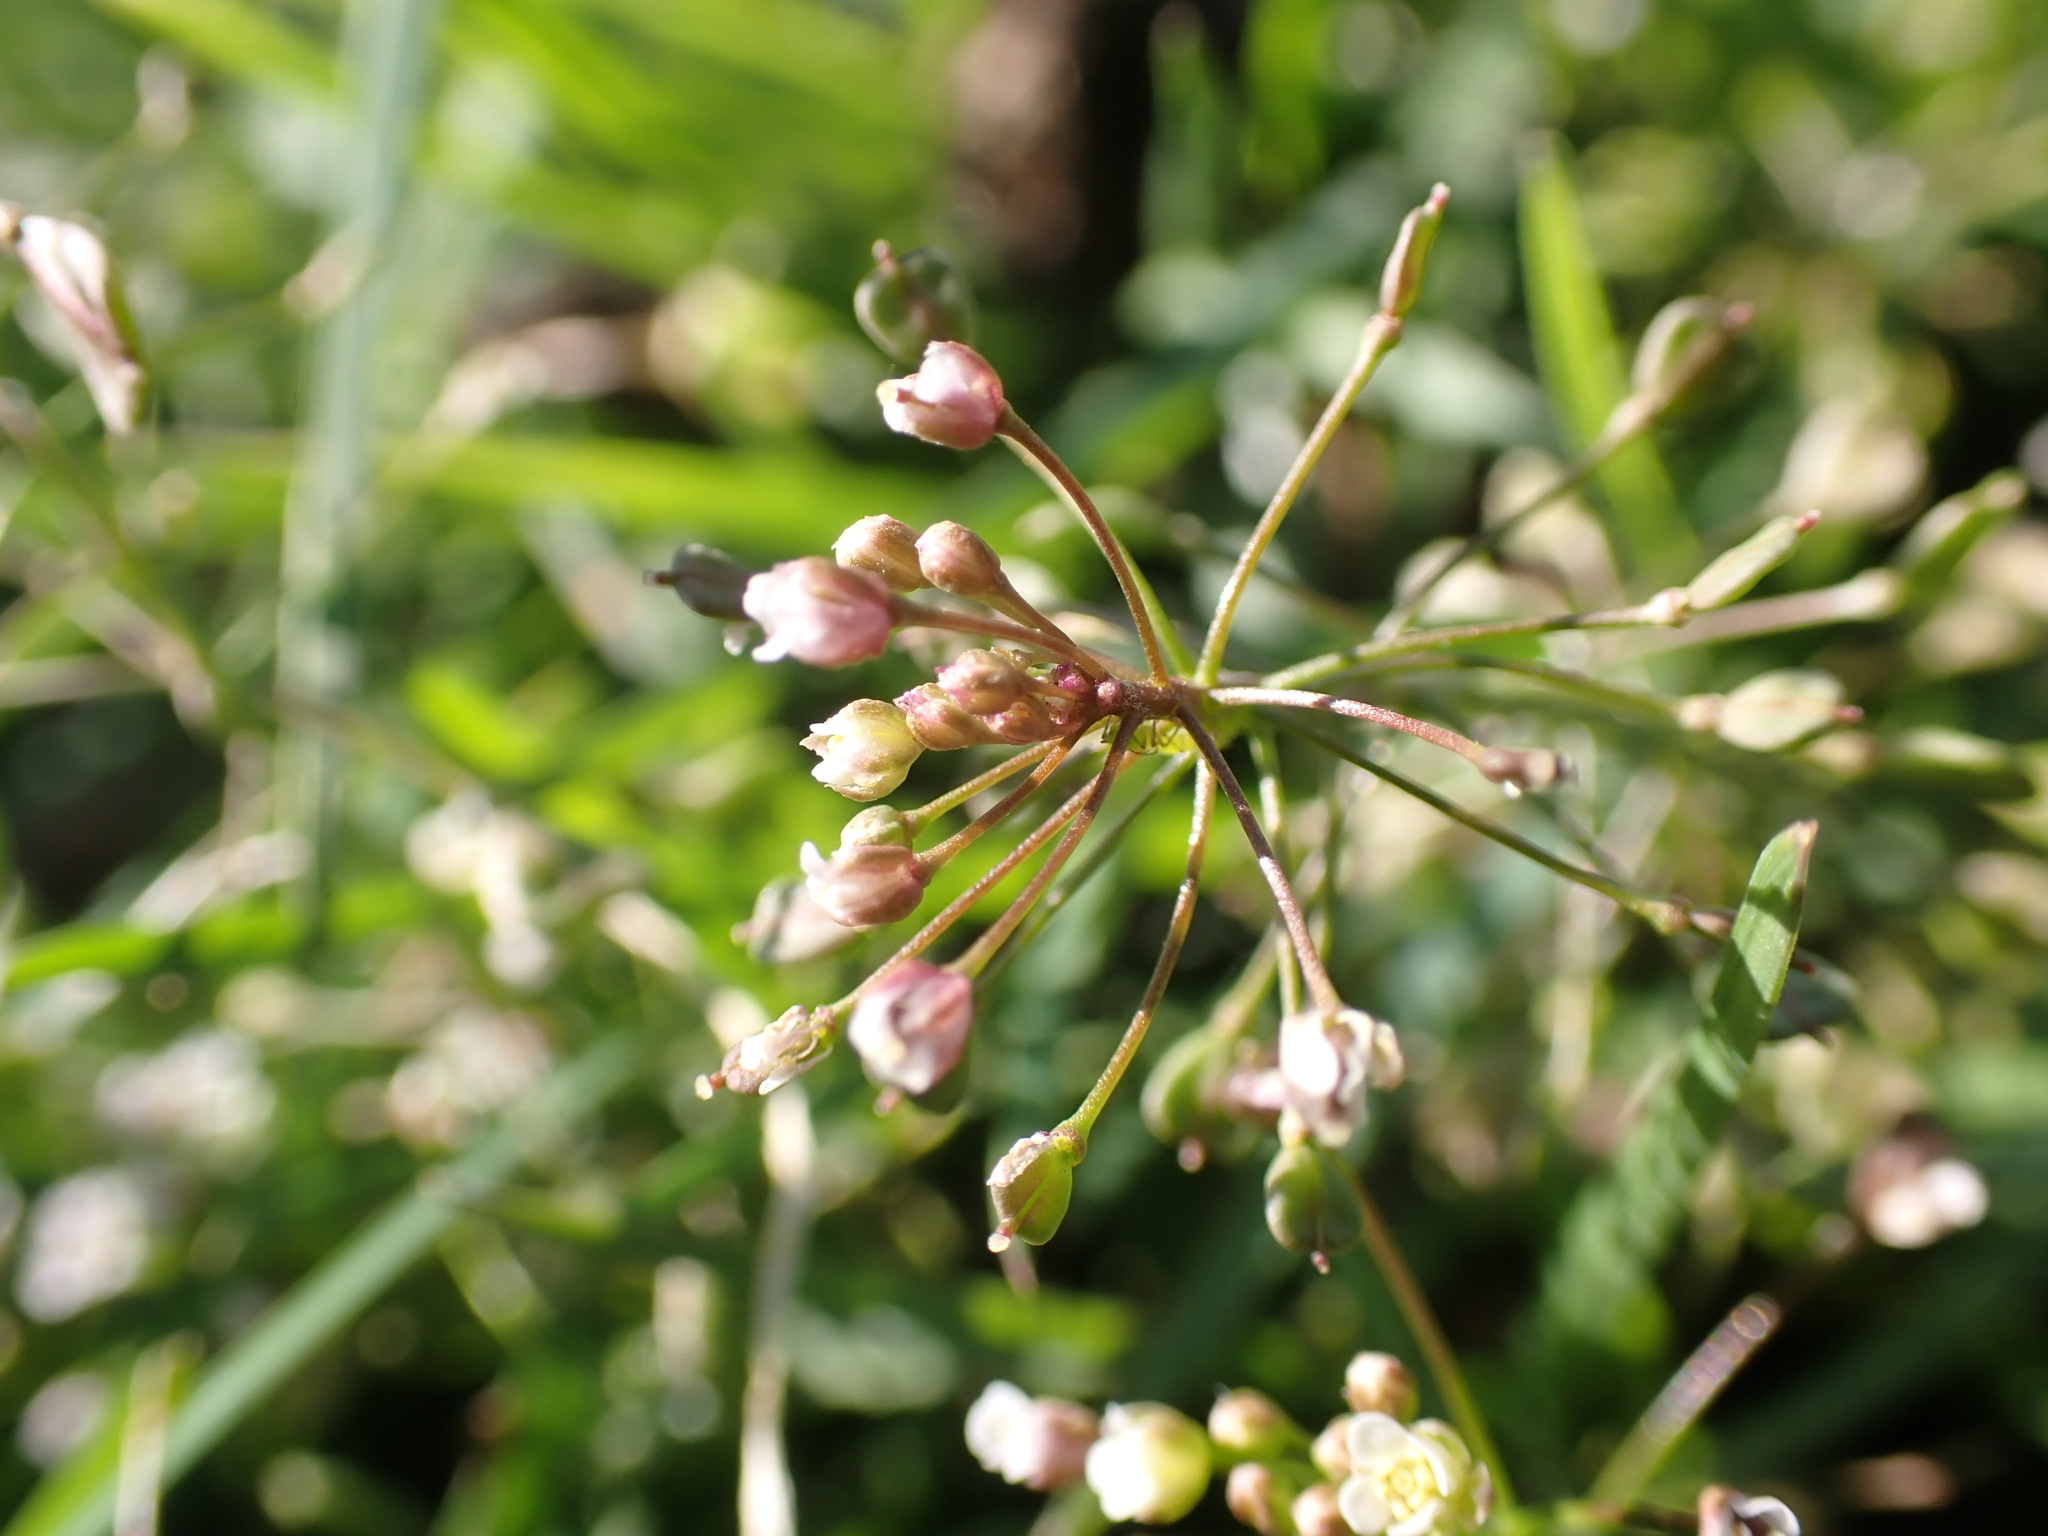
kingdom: Plantae
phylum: Tracheophyta
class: Magnoliopsida
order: Brassicales
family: Brassicaceae
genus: Capsella
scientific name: Capsella bursa-pastoris
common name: Shepherd's purse
